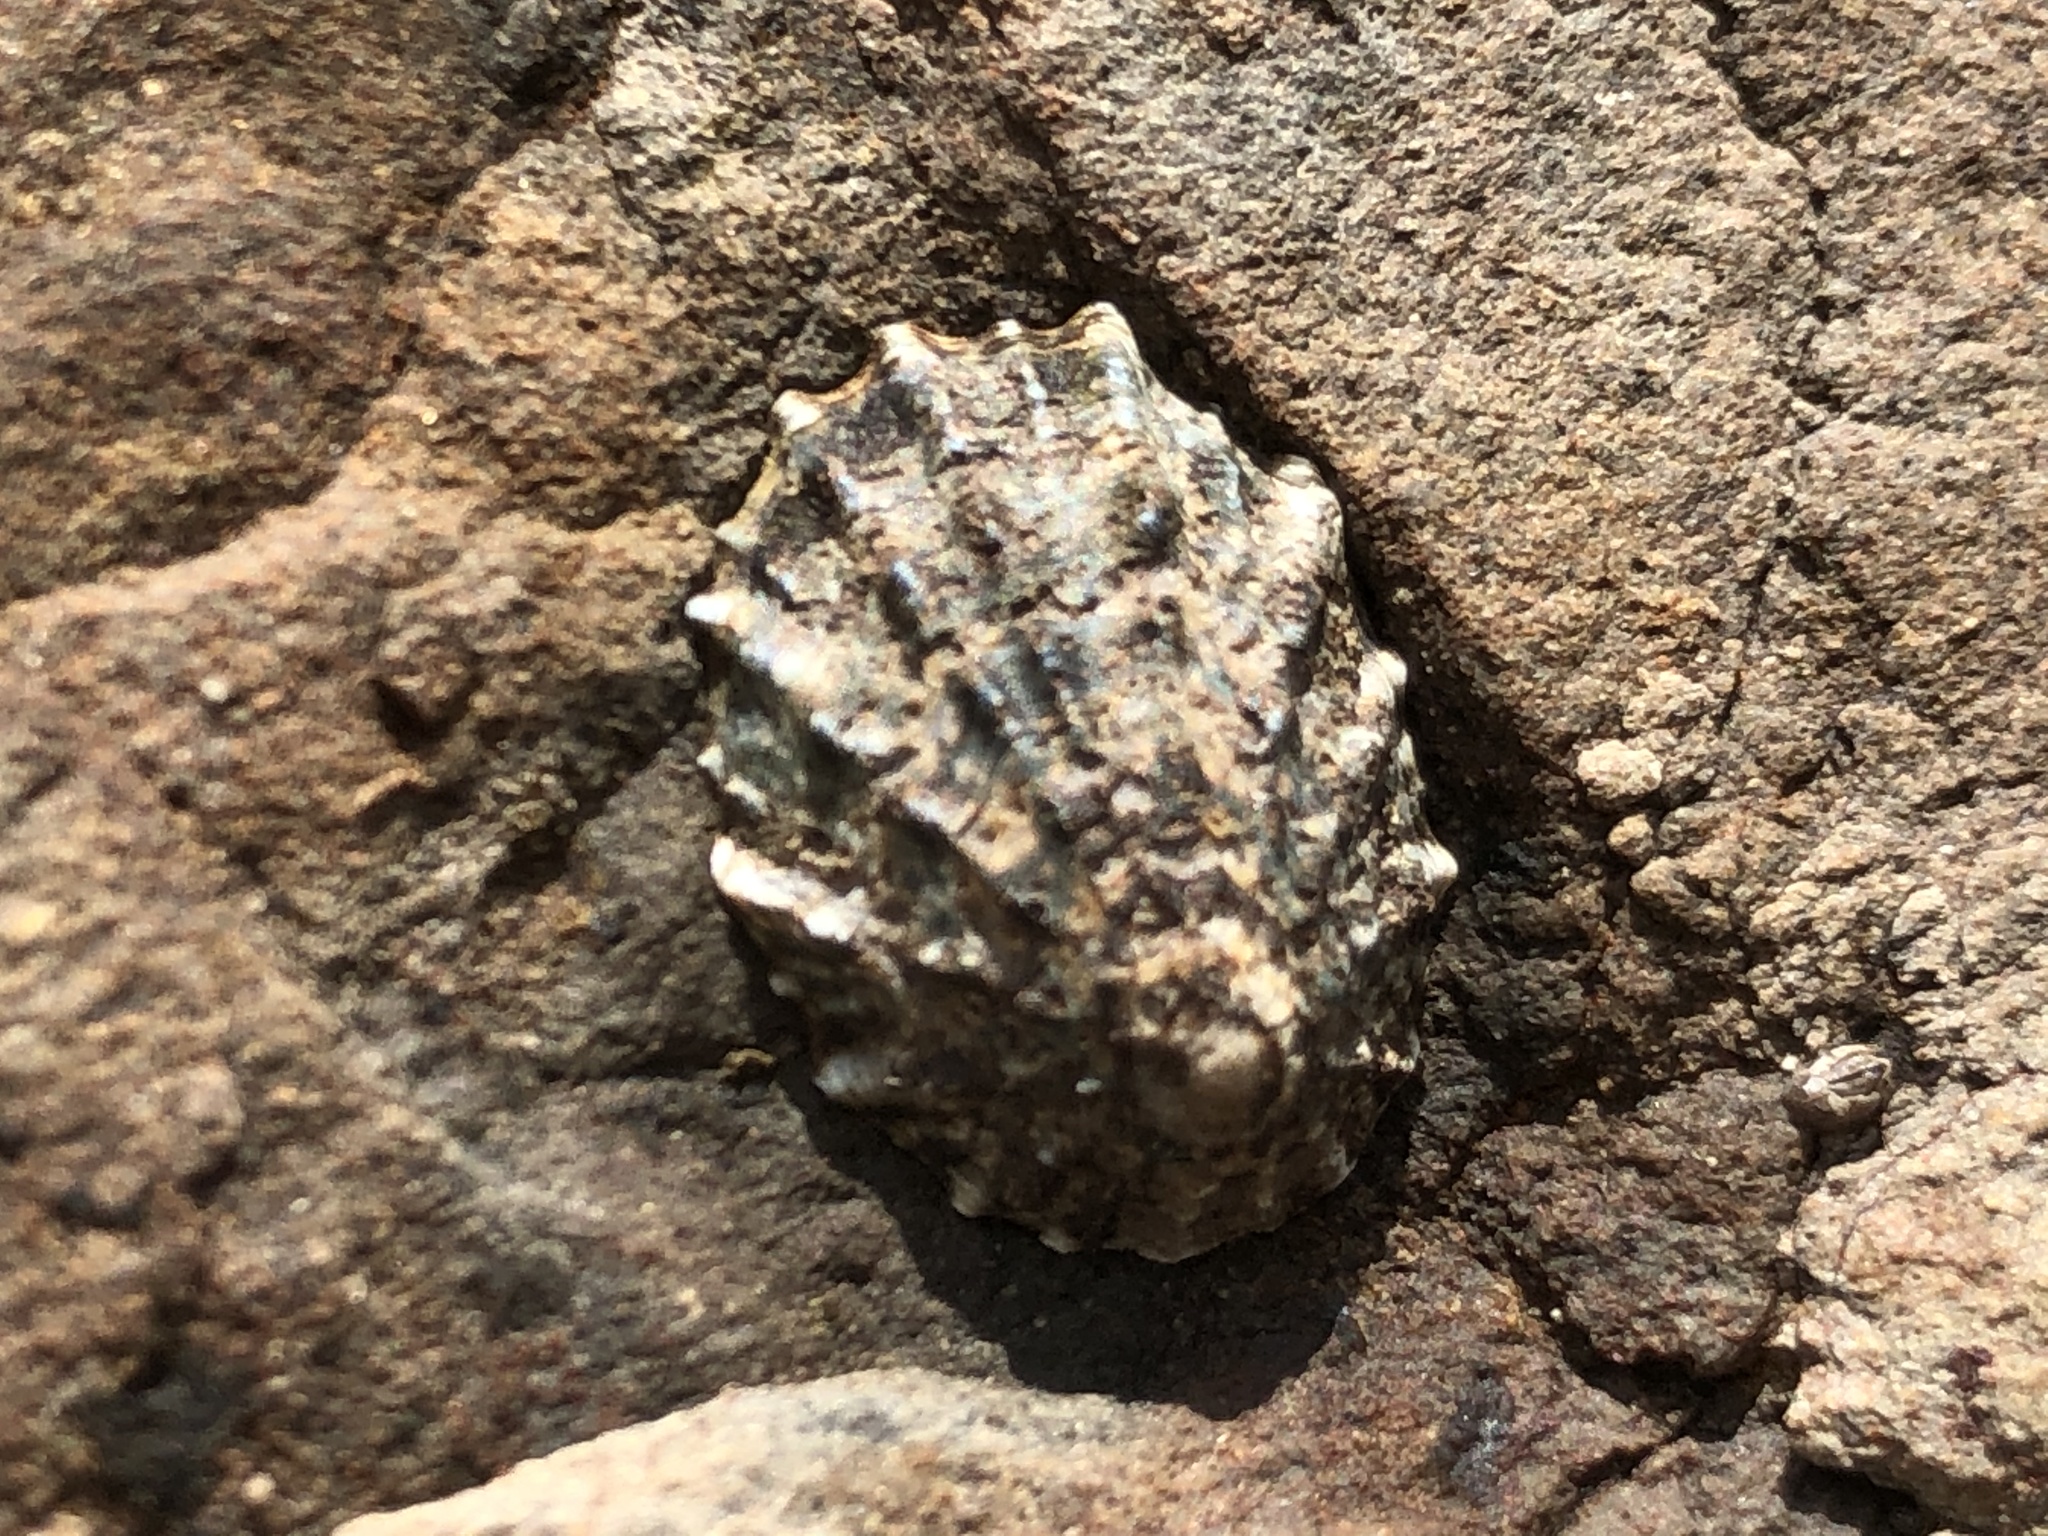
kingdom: Animalia
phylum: Mollusca
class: Gastropoda
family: Lottiidae
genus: Lottia
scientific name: Lottia scabra
